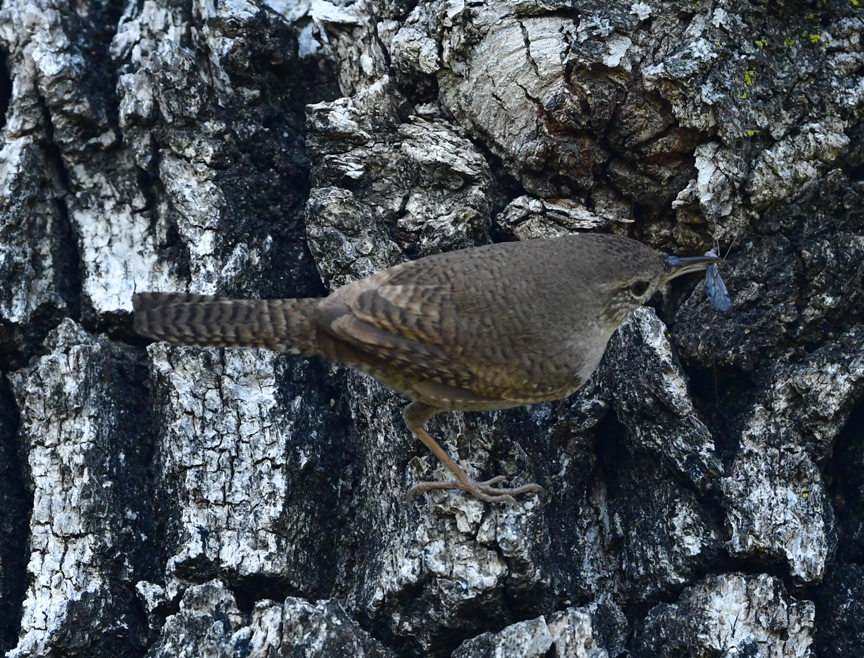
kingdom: Animalia
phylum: Chordata
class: Aves
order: Passeriformes
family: Troglodytidae
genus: Troglodytes
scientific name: Troglodytes aedon
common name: House wren
